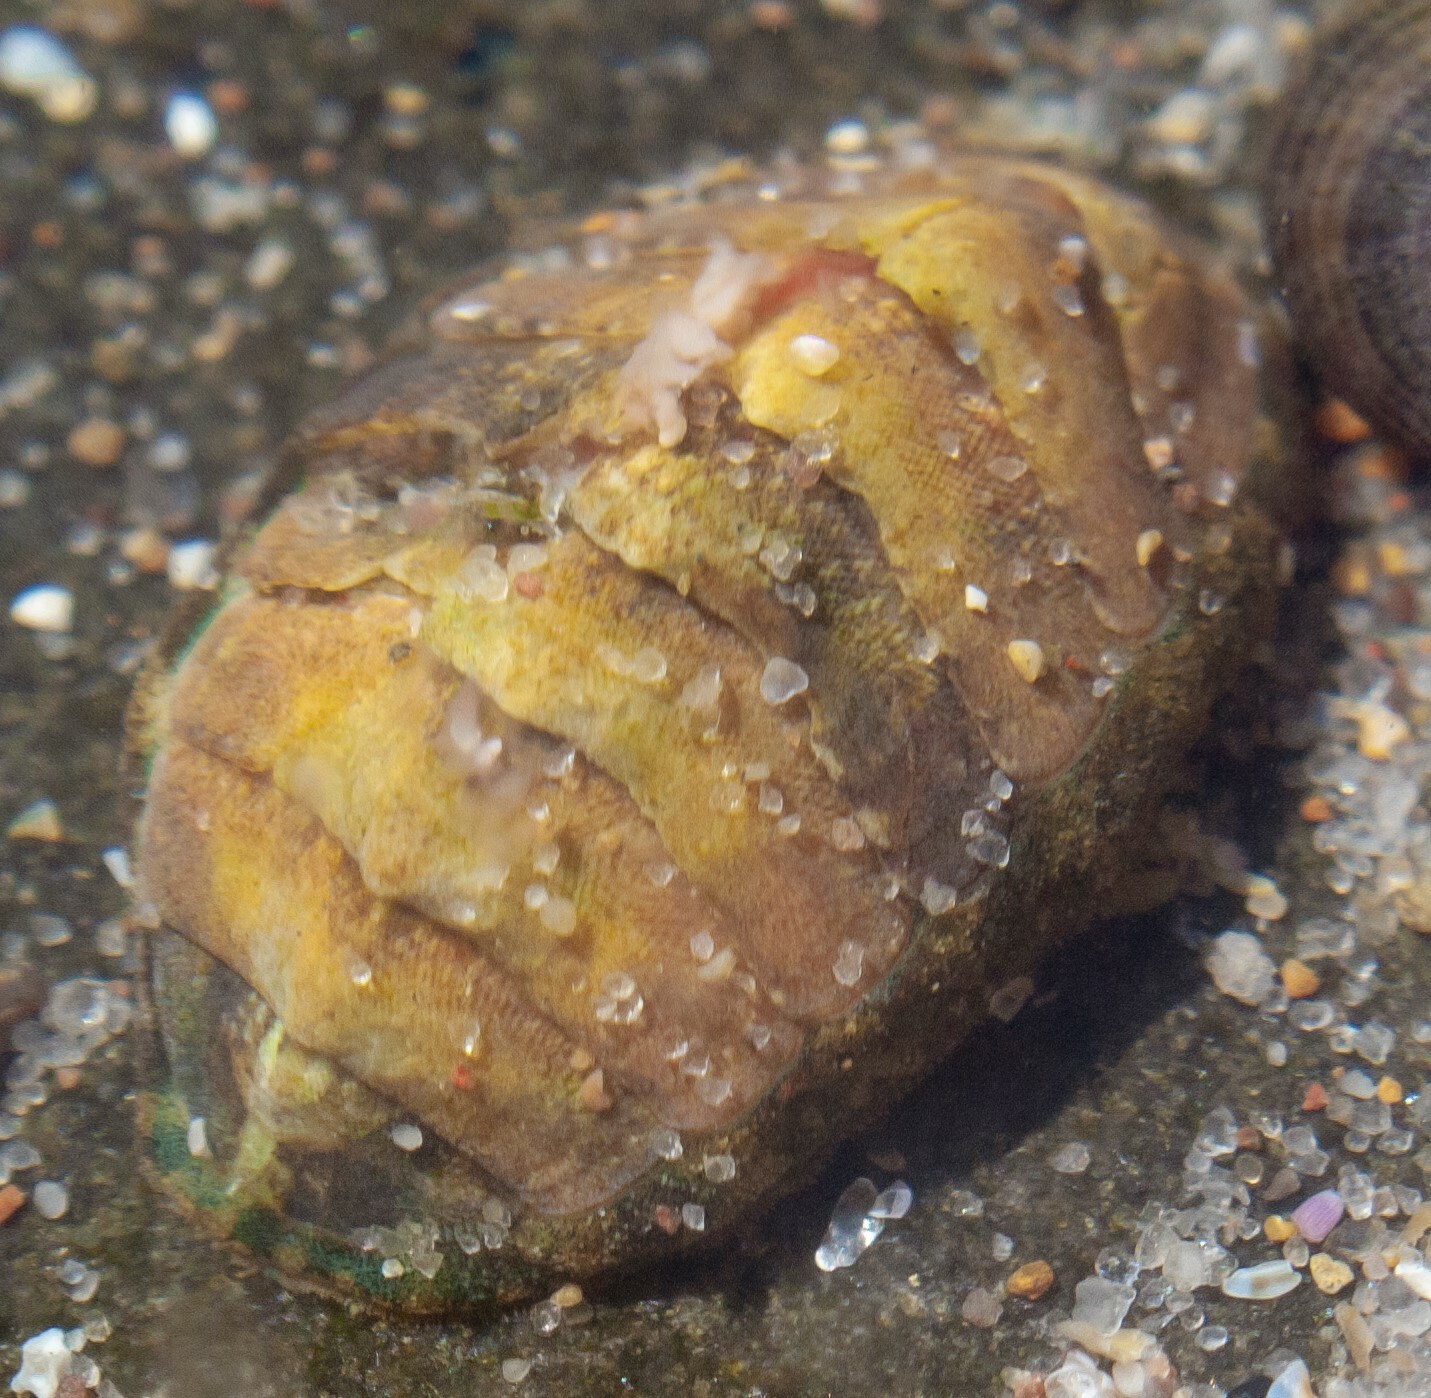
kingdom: Animalia
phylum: Mollusca
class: Polyplacophora
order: Chitonida
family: Tonicellidae
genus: Lepidochitona
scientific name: Lepidochitona cinerea
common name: Cinereous chiton
